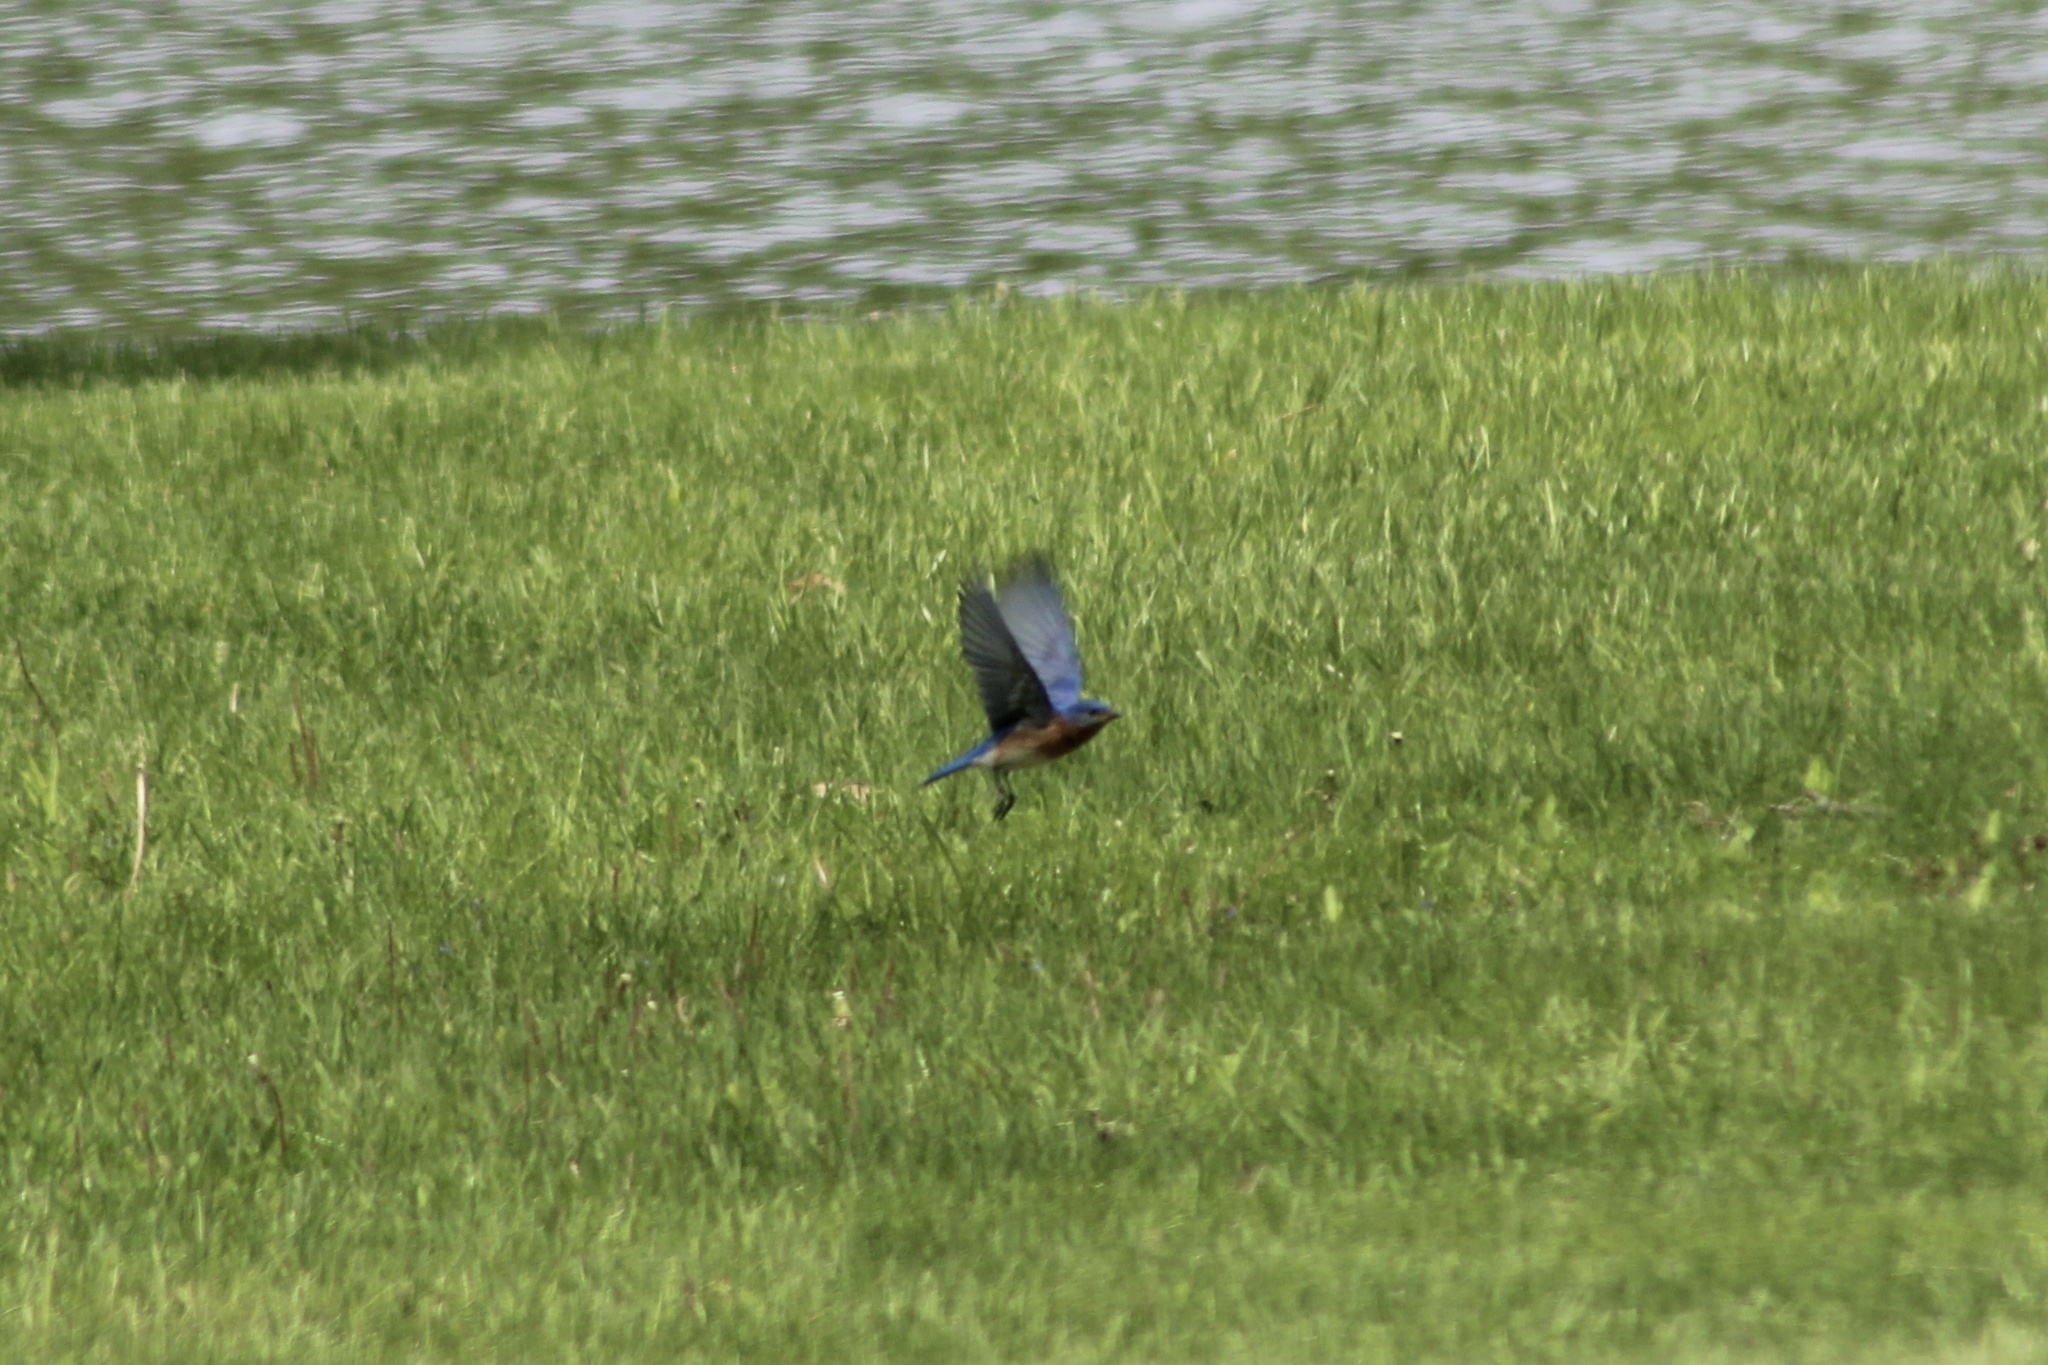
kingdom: Animalia
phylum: Chordata
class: Aves
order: Passeriformes
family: Turdidae
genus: Sialia
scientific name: Sialia sialis
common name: Eastern bluebird
